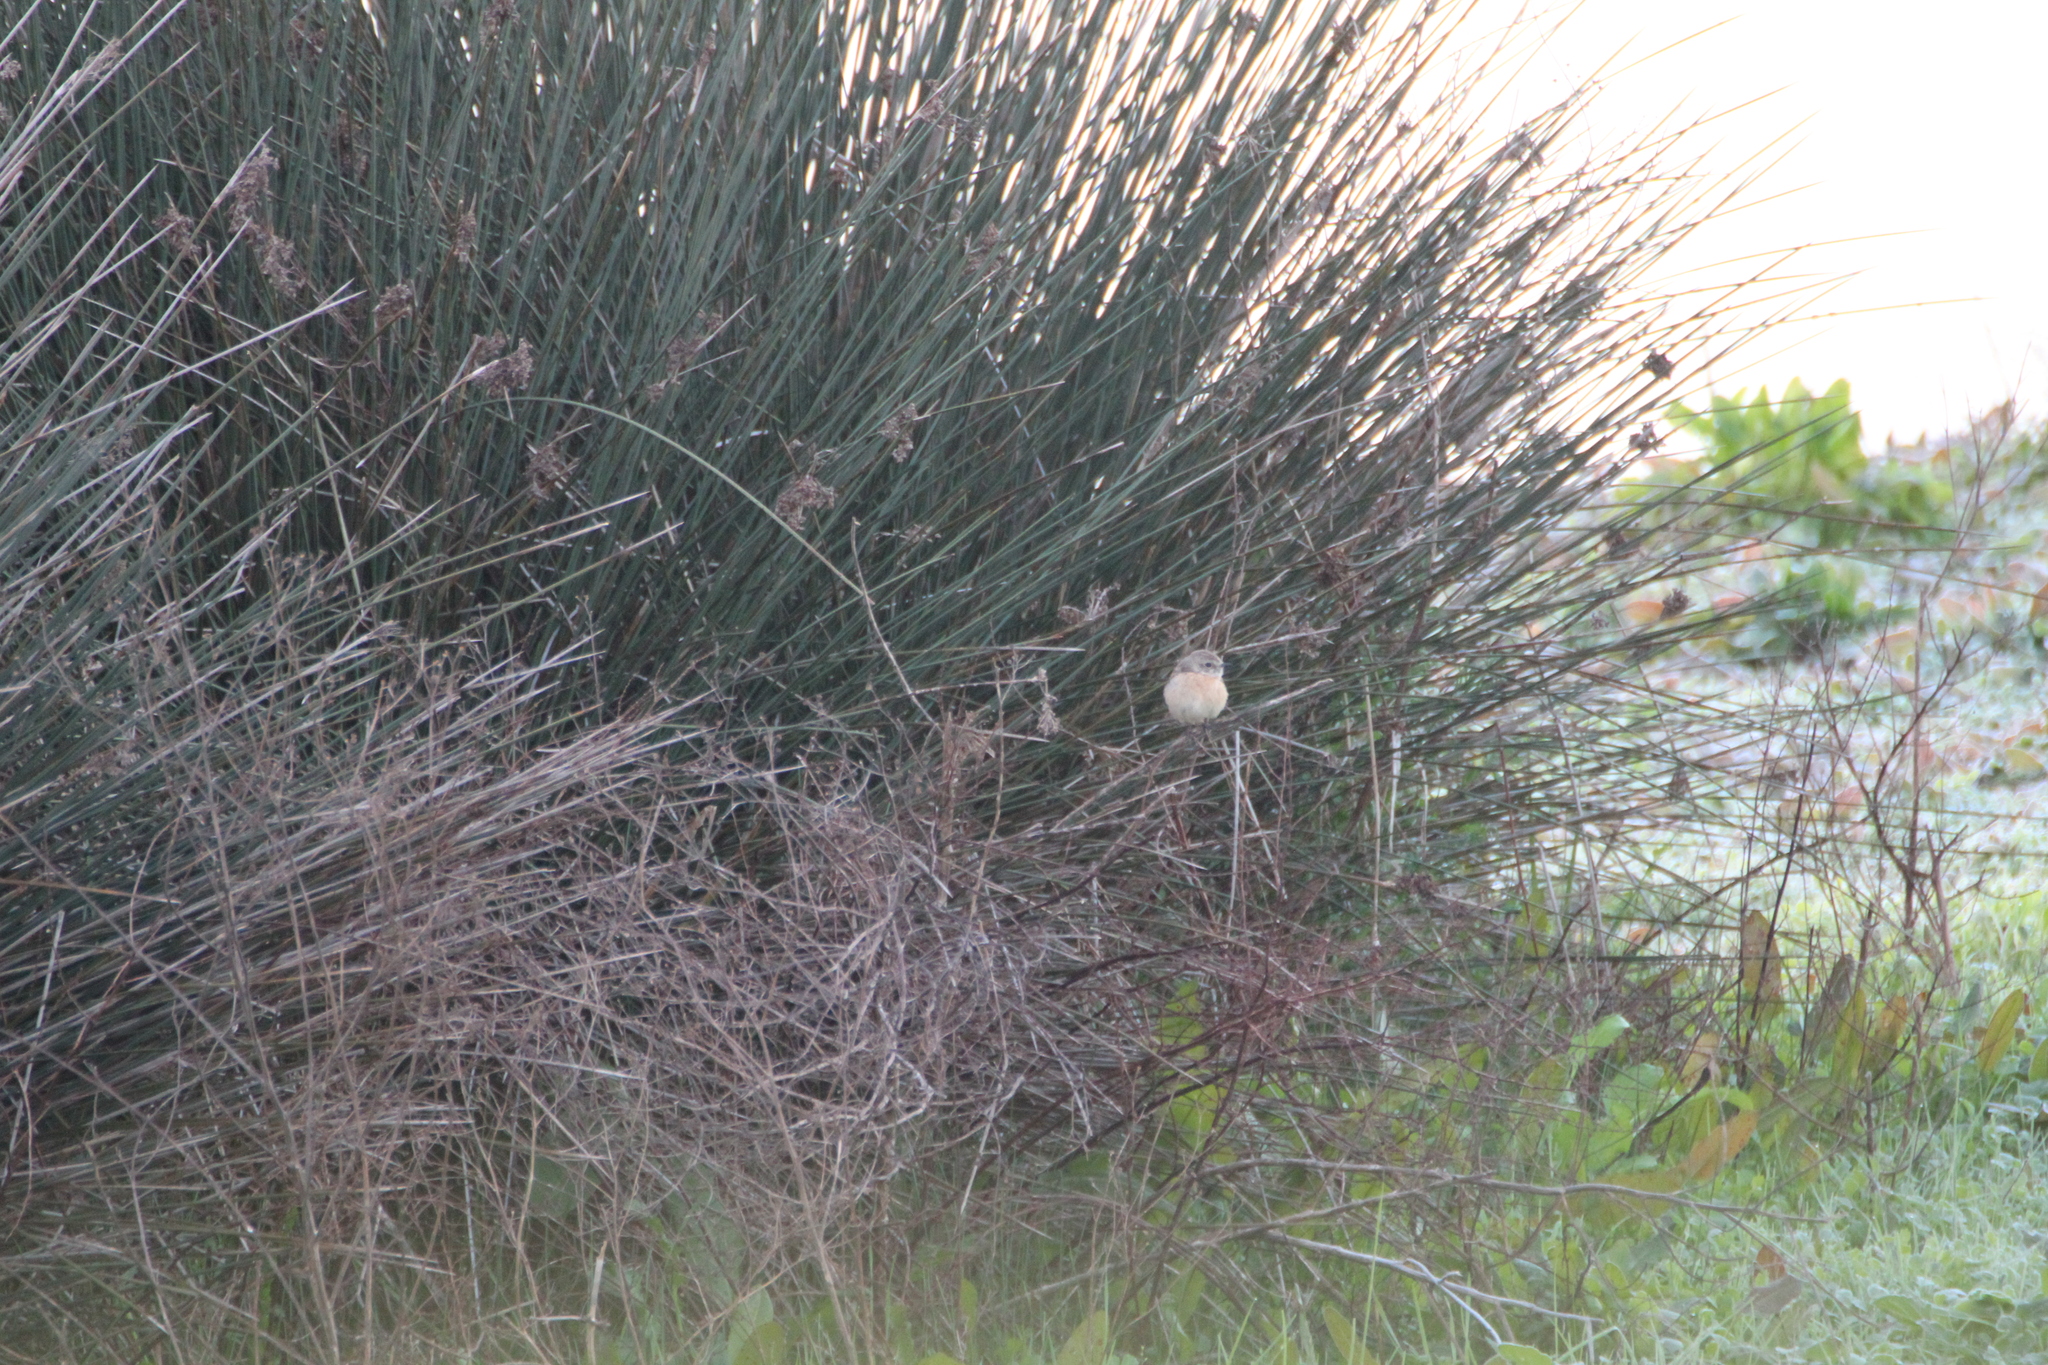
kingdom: Animalia
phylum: Chordata
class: Aves
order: Passeriformes
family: Muscicapidae
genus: Saxicola
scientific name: Saxicola rubicola
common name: European stonechat
